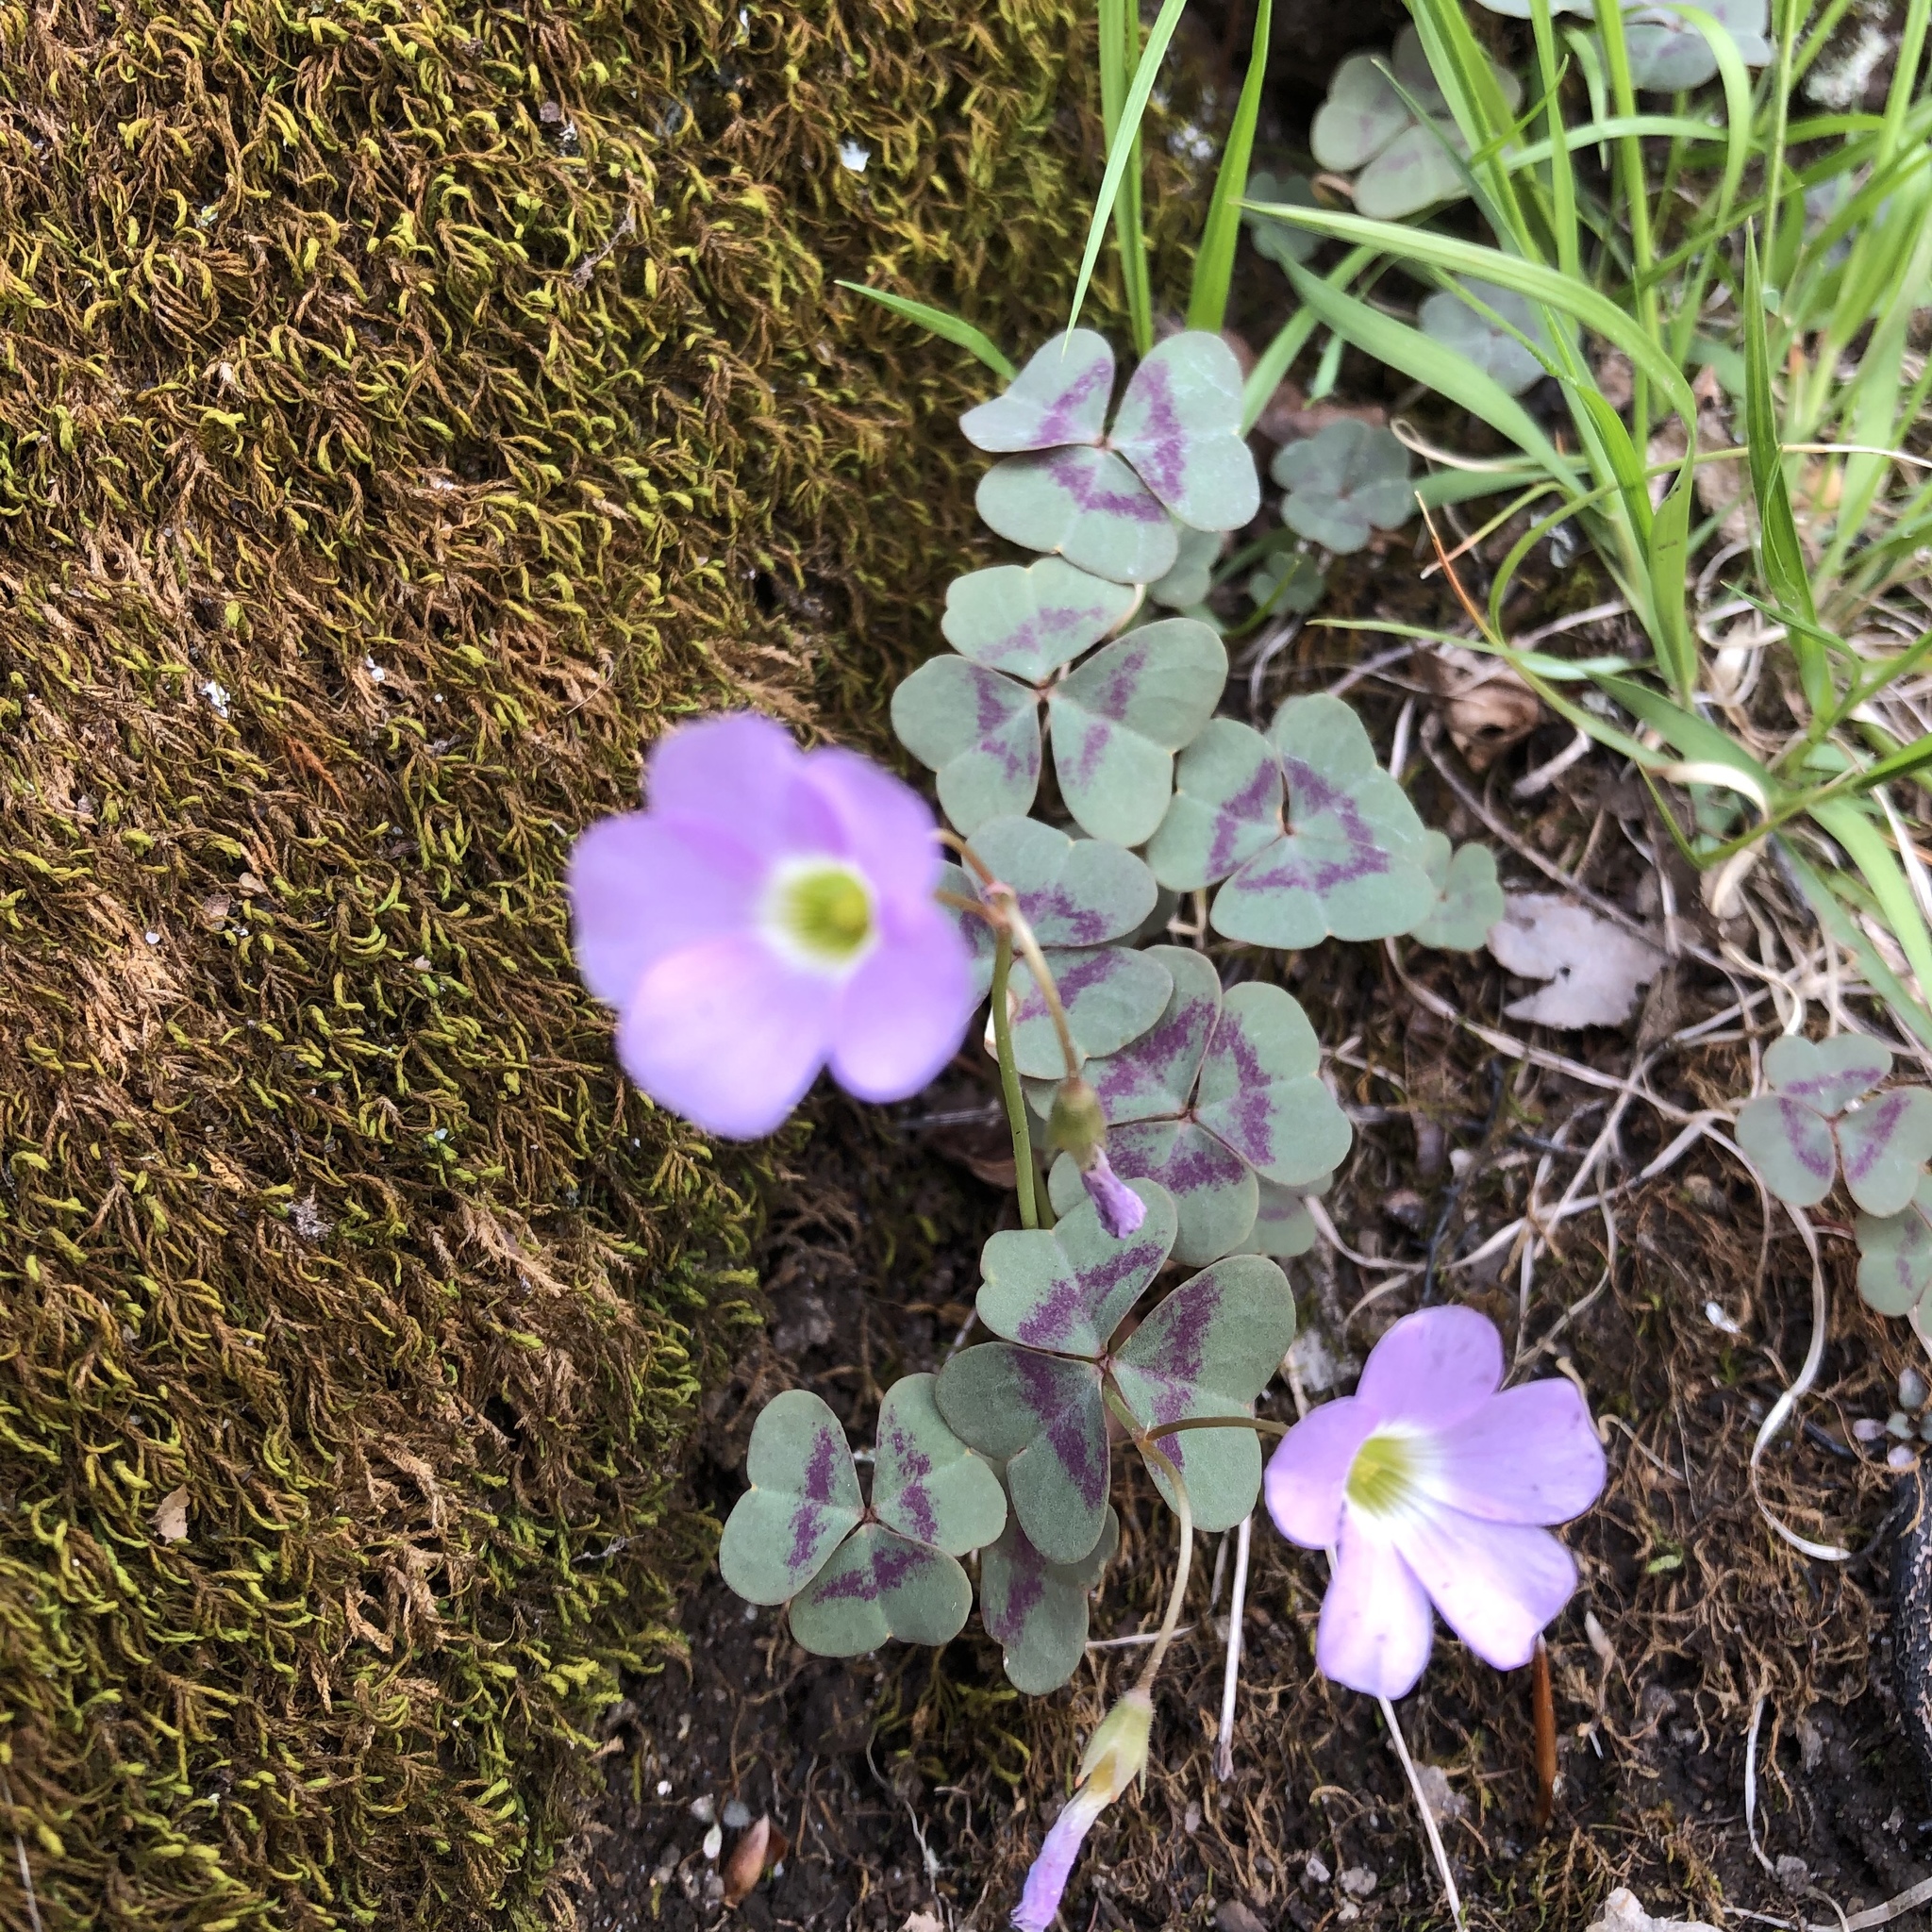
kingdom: Plantae
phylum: Tracheophyta
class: Magnoliopsida
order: Oxalidales
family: Oxalidaceae
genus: Oxalis
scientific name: Oxalis violacea
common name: Violet wood-sorrel
